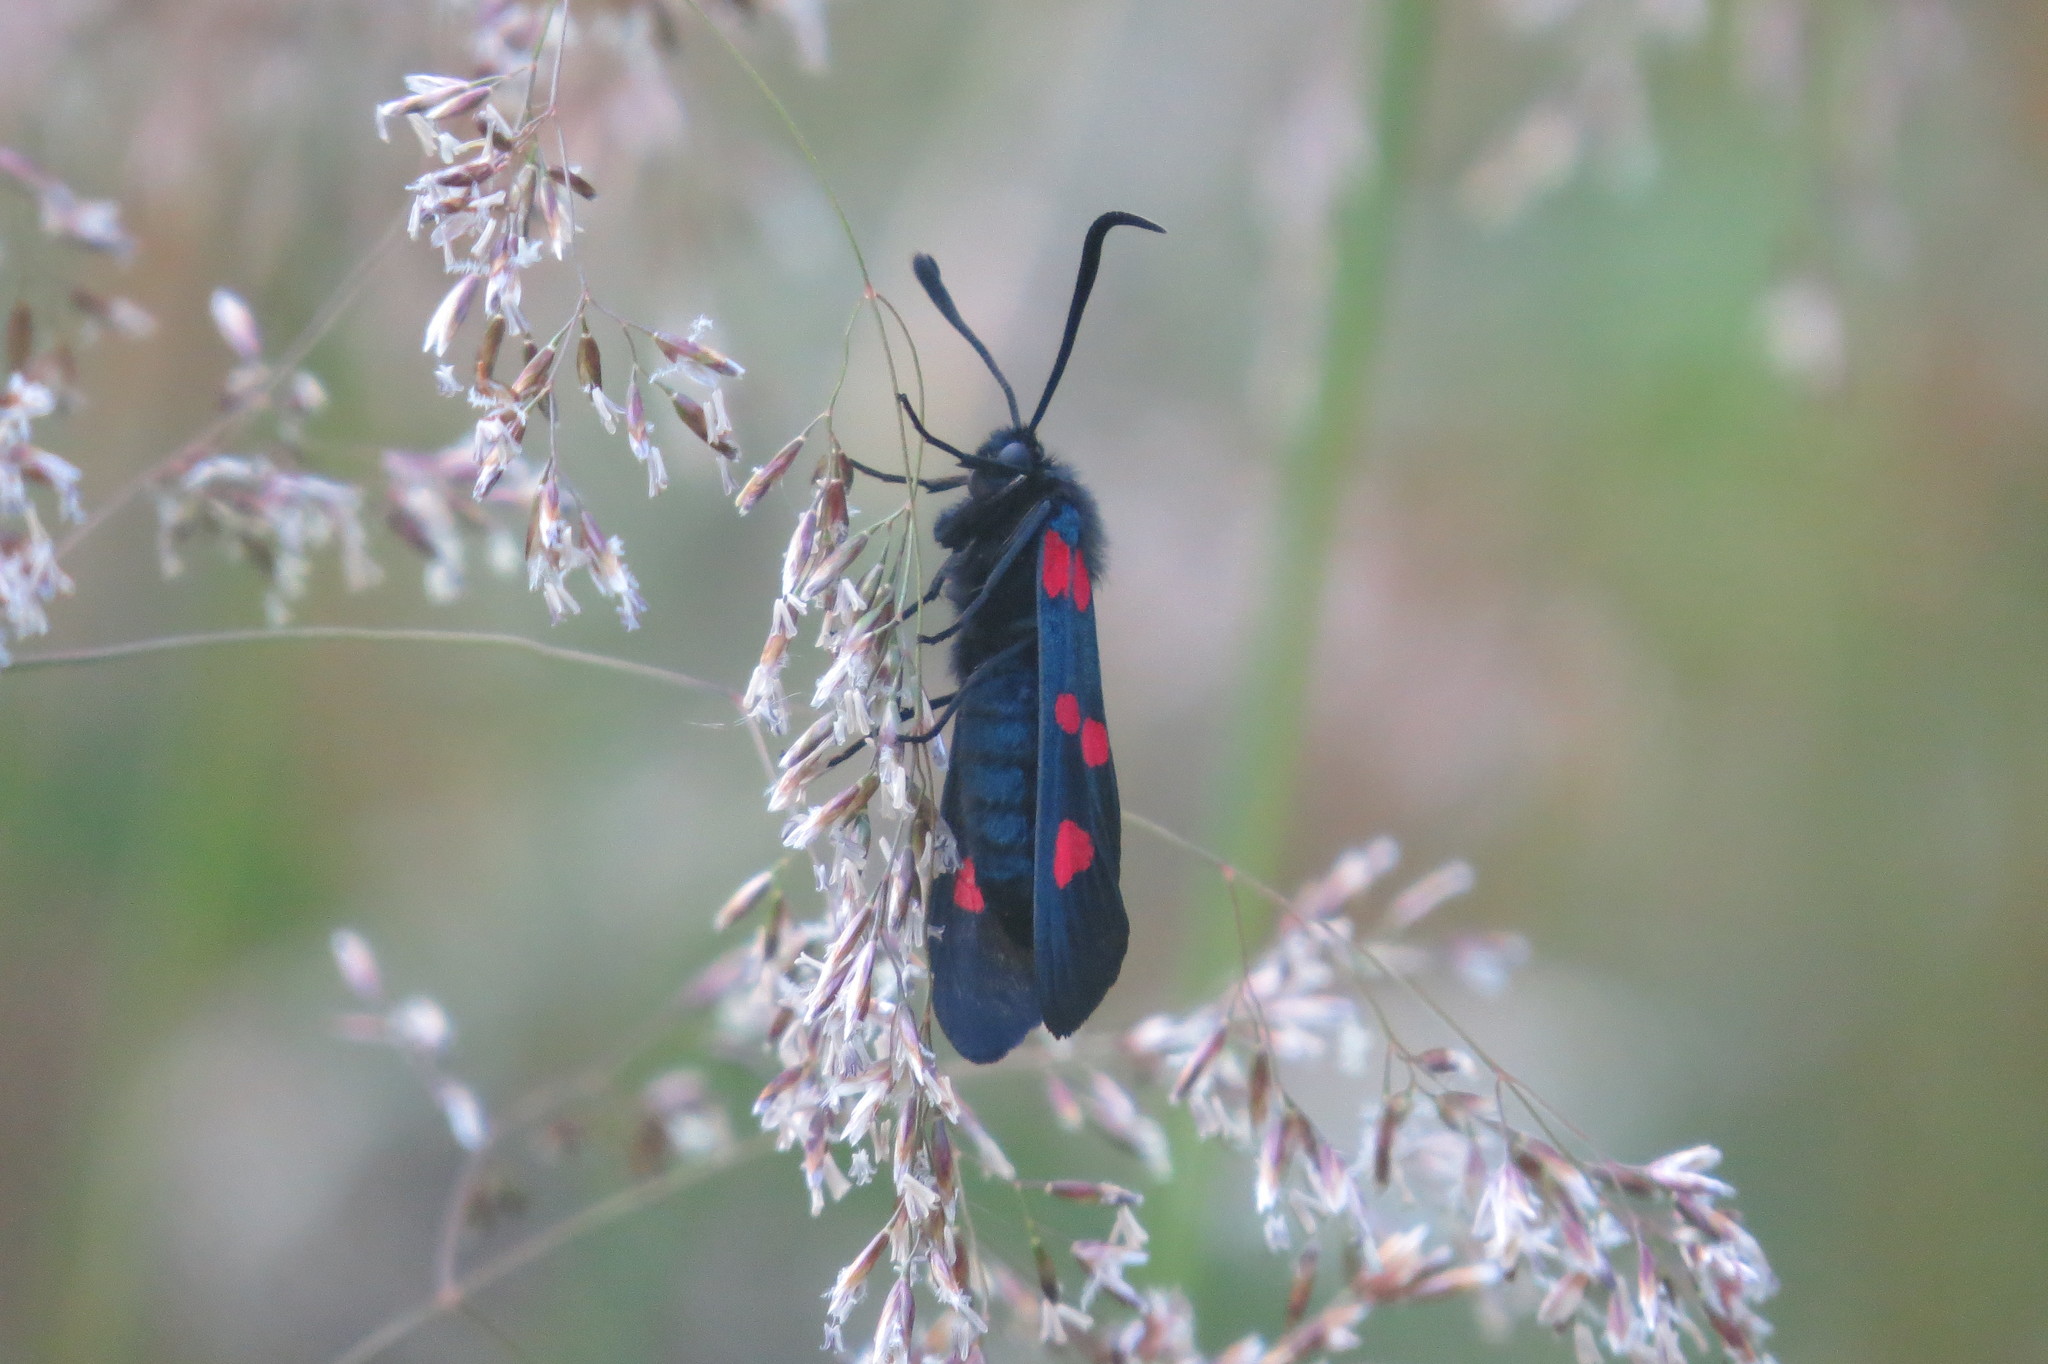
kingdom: Animalia
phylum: Arthropoda
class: Insecta
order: Lepidoptera
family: Zygaenidae
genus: Zygaena
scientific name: Zygaena lonicerae
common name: Narrow-bordered five-spot burnet
